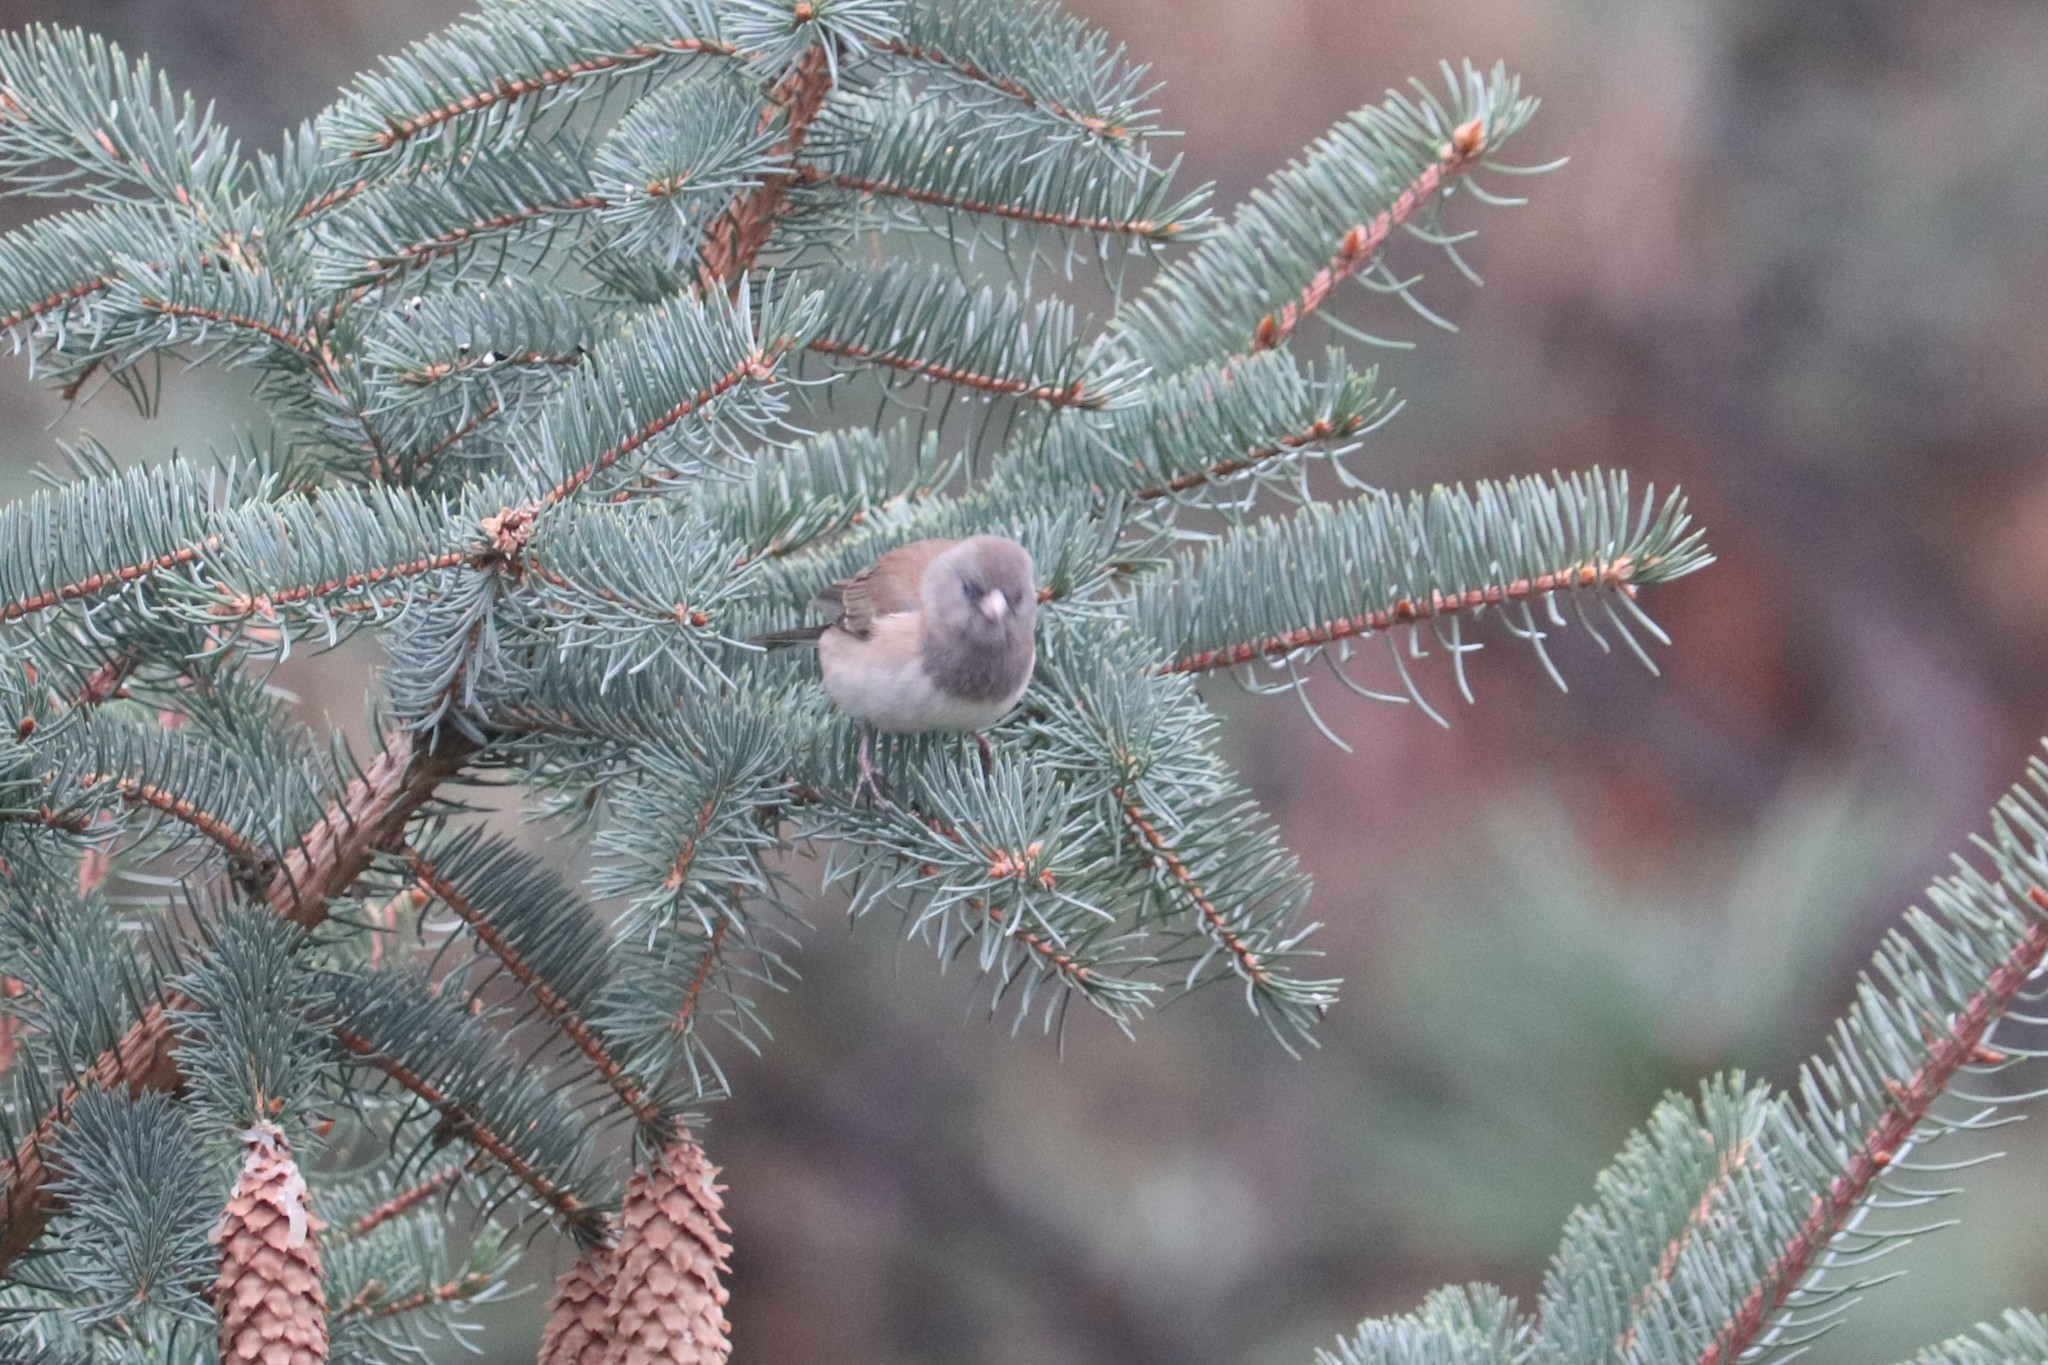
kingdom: Animalia
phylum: Chordata
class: Aves
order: Passeriformes
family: Passerellidae
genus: Junco
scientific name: Junco hyemalis
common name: Dark-eyed junco
